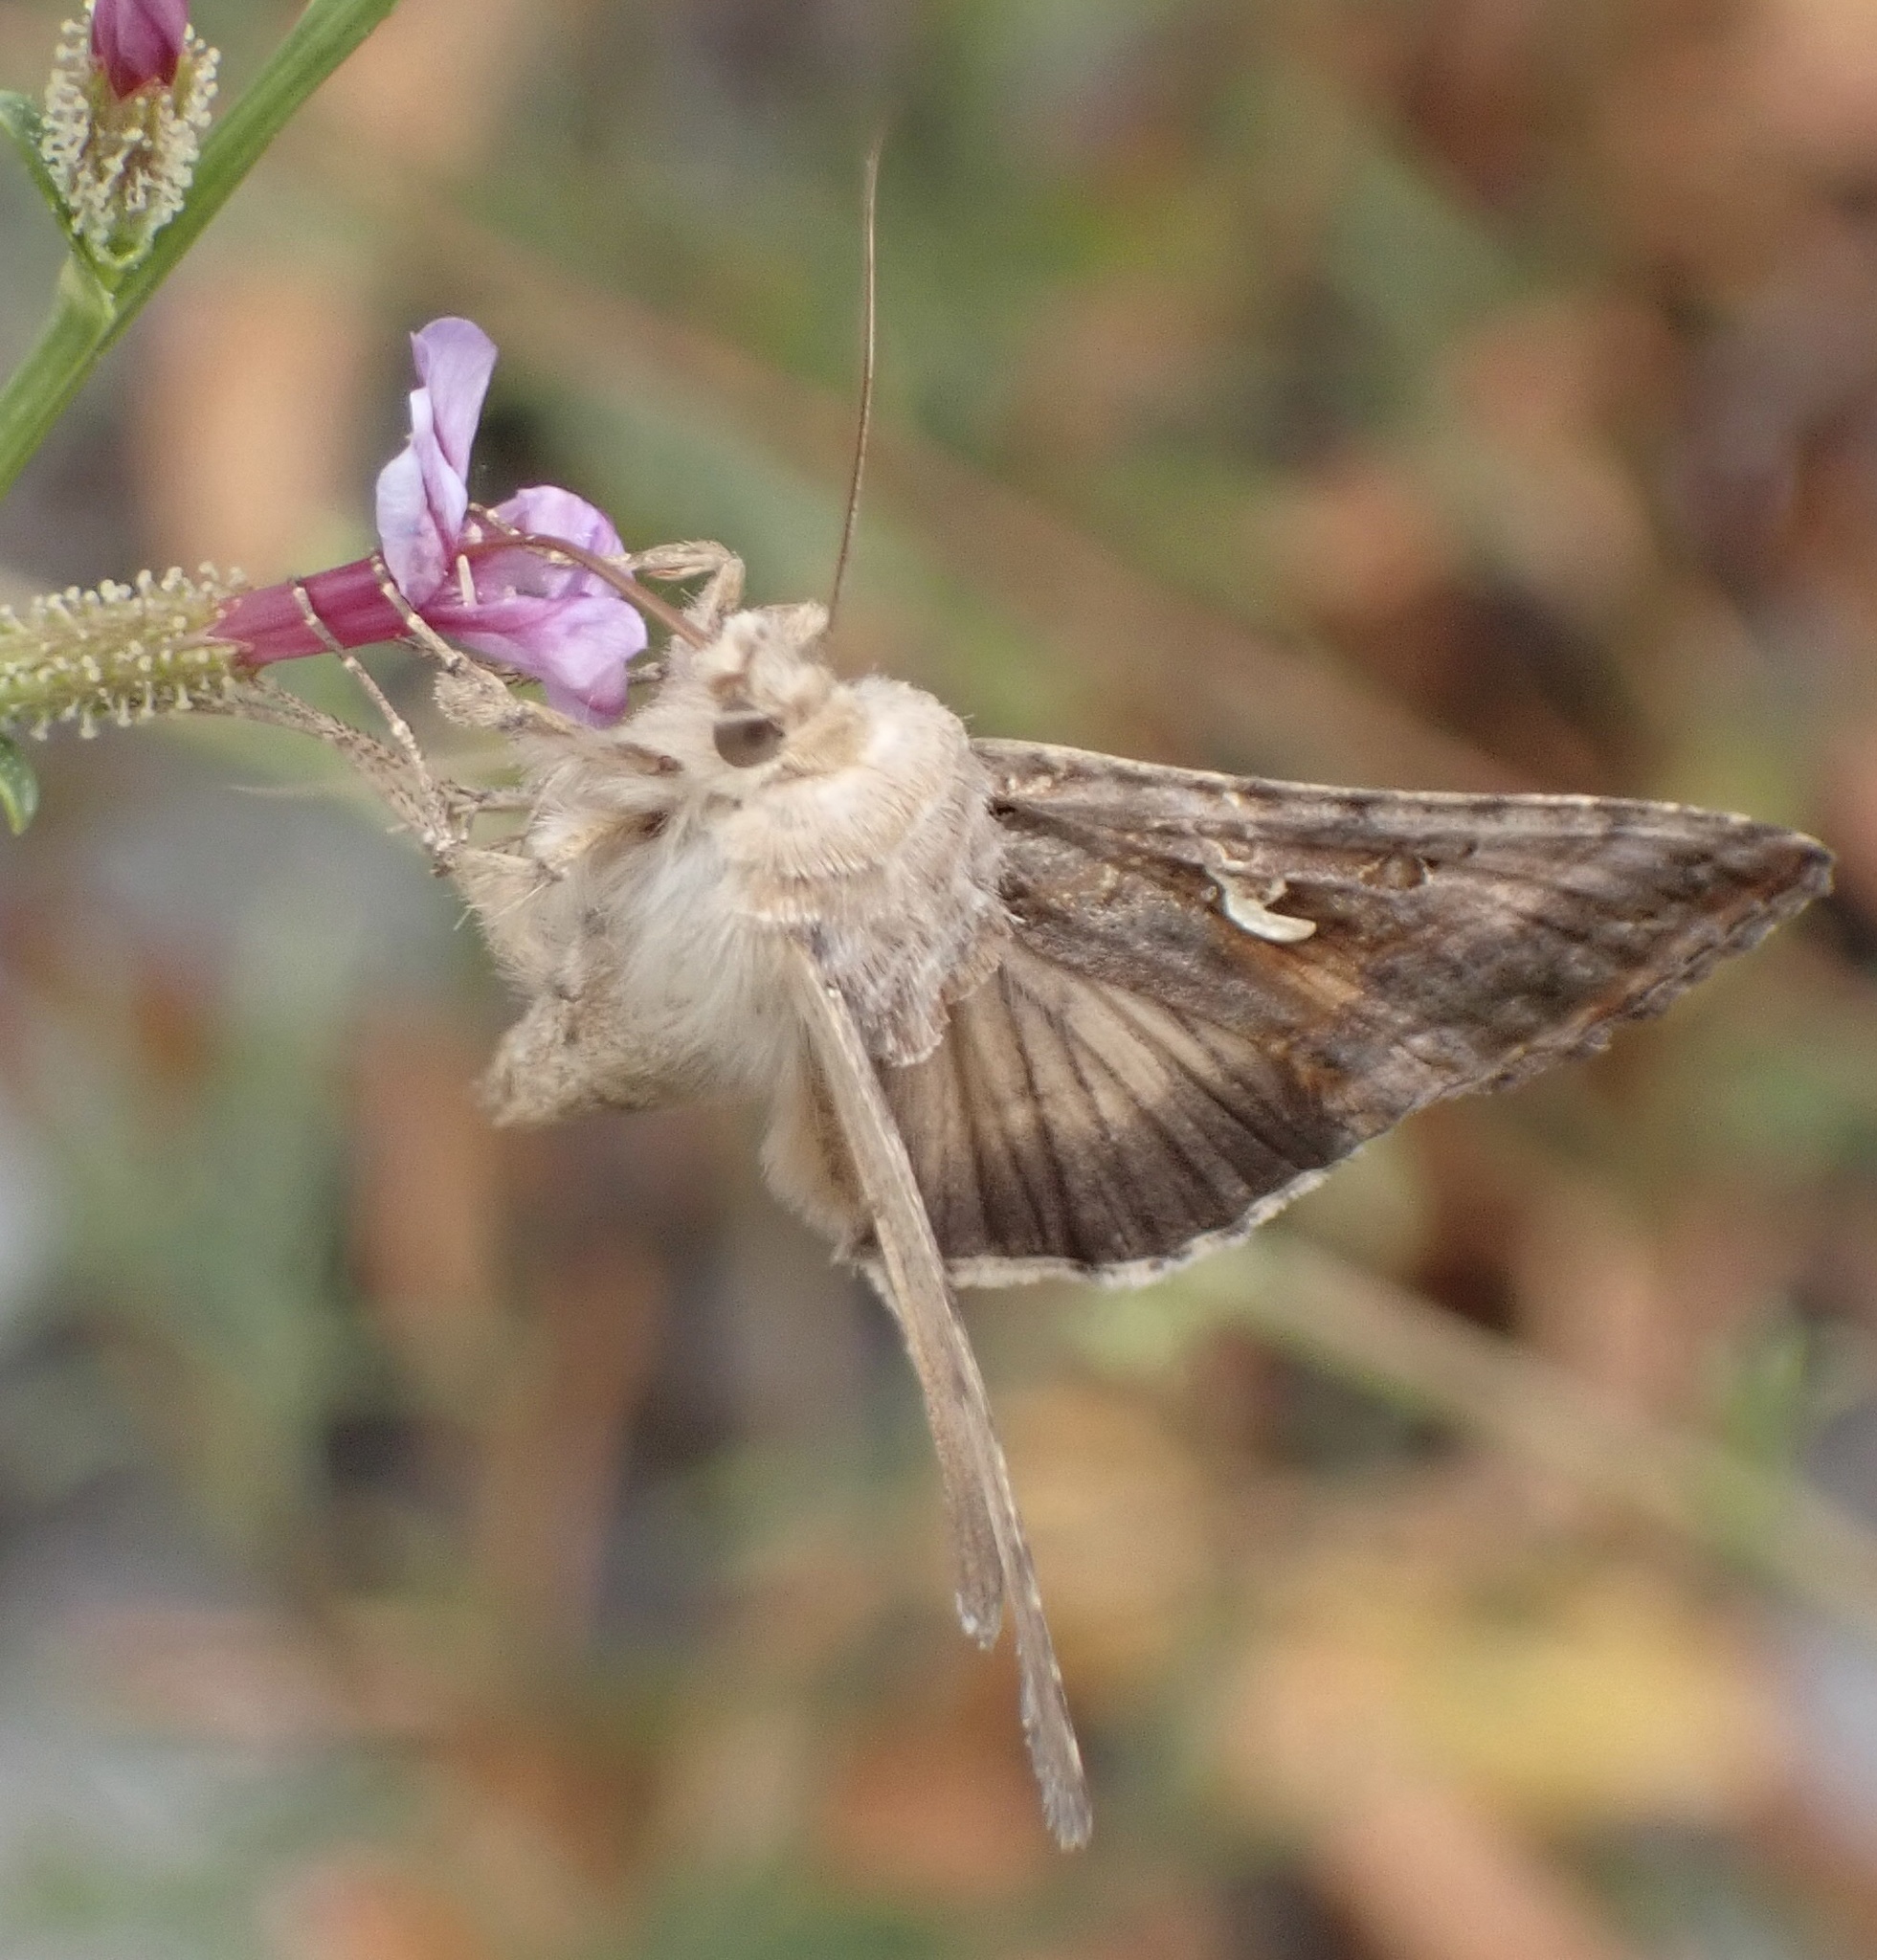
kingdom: Animalia
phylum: Arthropoda
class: Insecta
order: Lepidoptera
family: Noctuidae
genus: Autographa
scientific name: Autographa gamma
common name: Silver y
